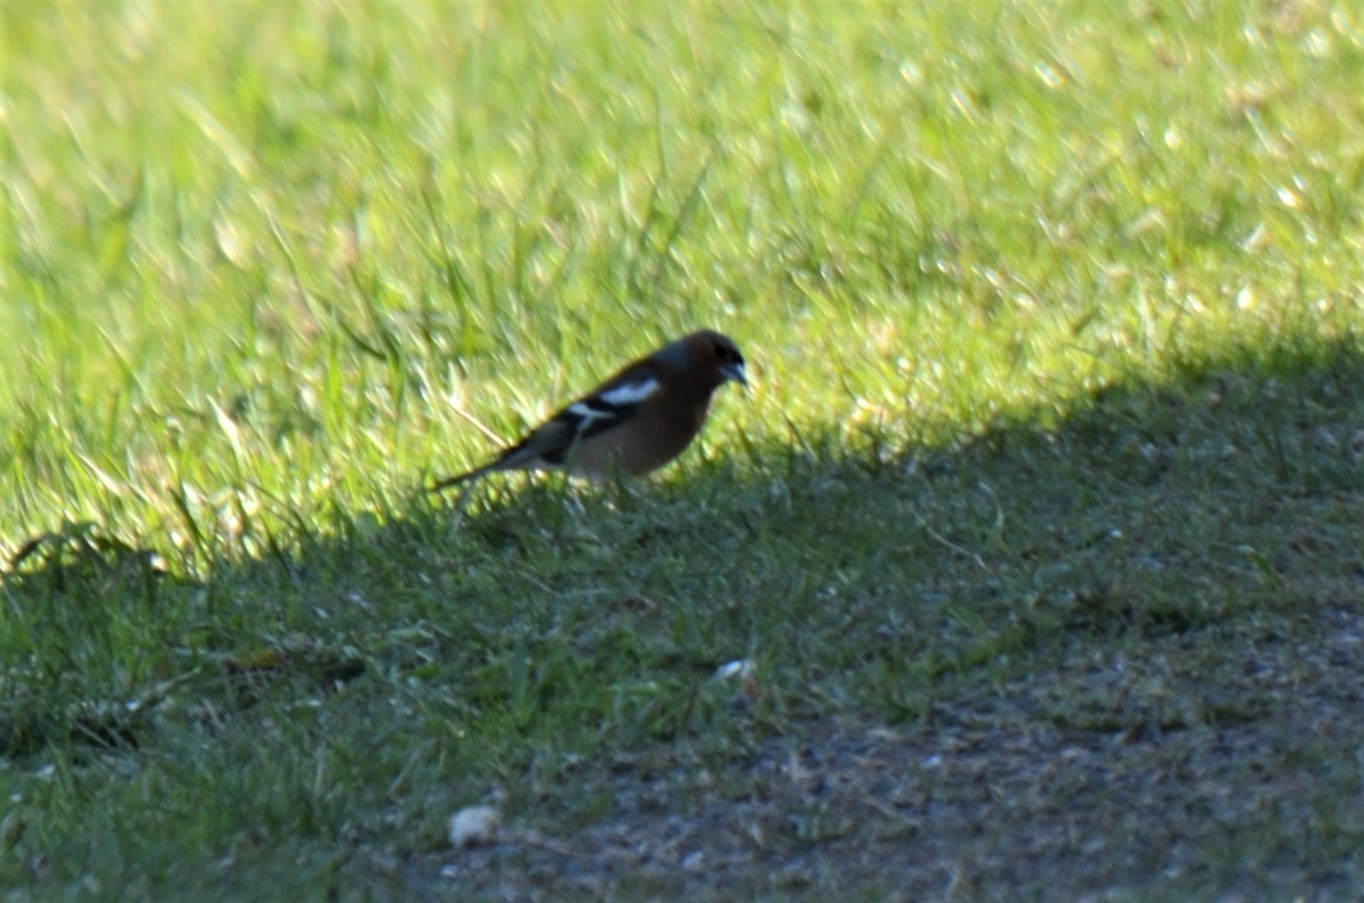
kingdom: Animalia
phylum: Chordata
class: Aves
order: Passeriformes
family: Fringillidae
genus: Fringilla
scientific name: Fringilla coelebs
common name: Common chaffinch
